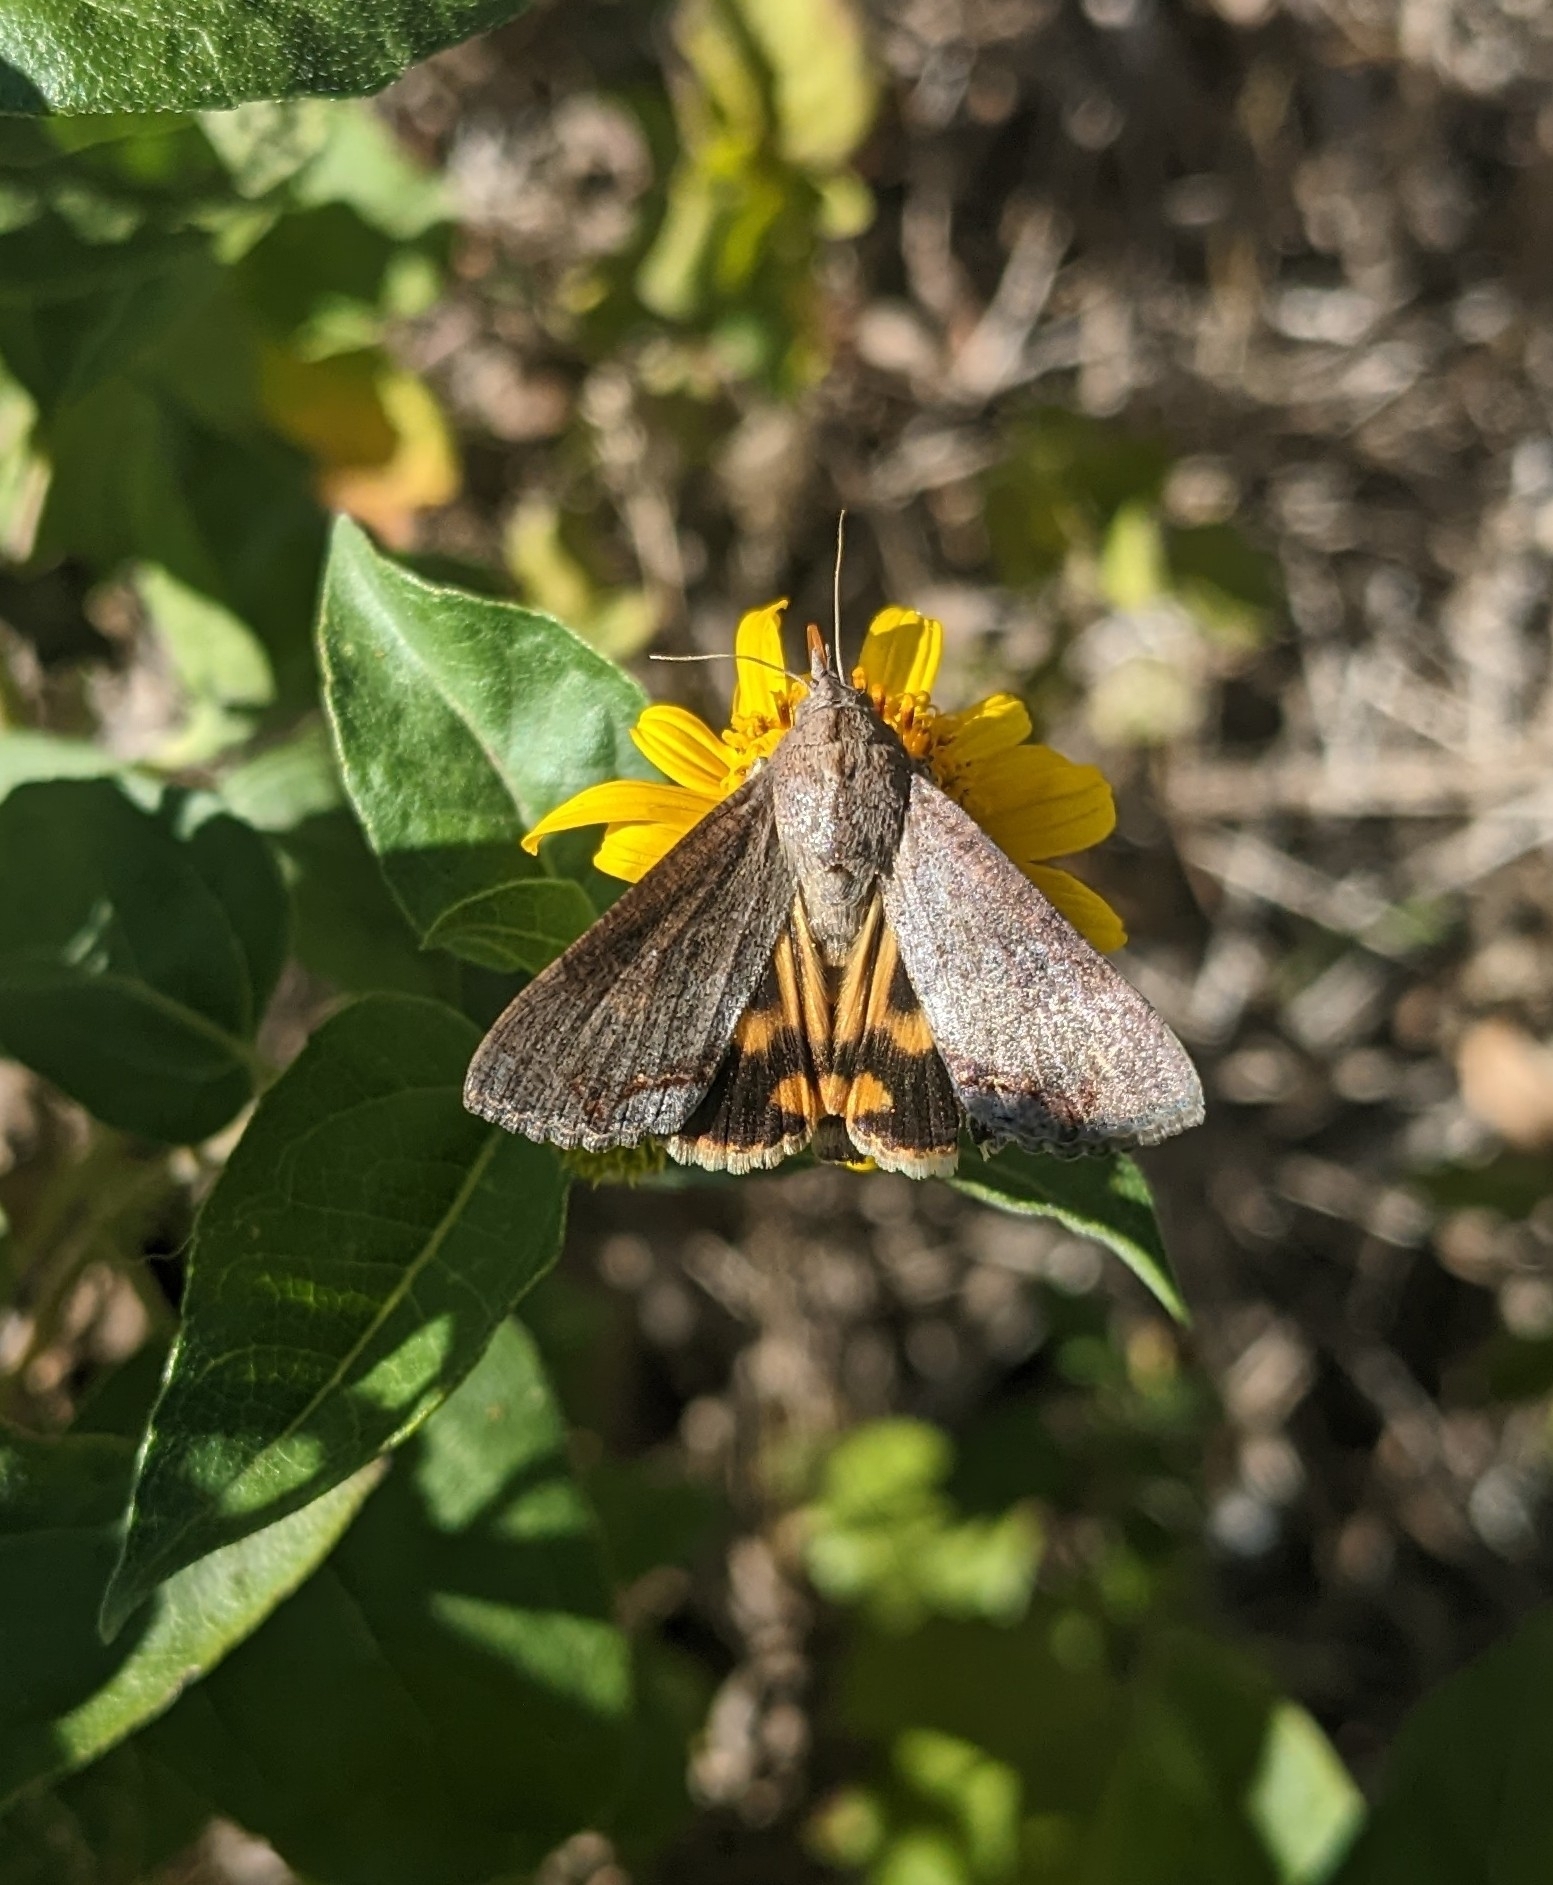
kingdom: Animalia
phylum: Arthropoda
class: Insecta
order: Lepidoptera
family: Erebidae
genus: Hypocala
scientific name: Hypocala andremona
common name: Hypocala moth
